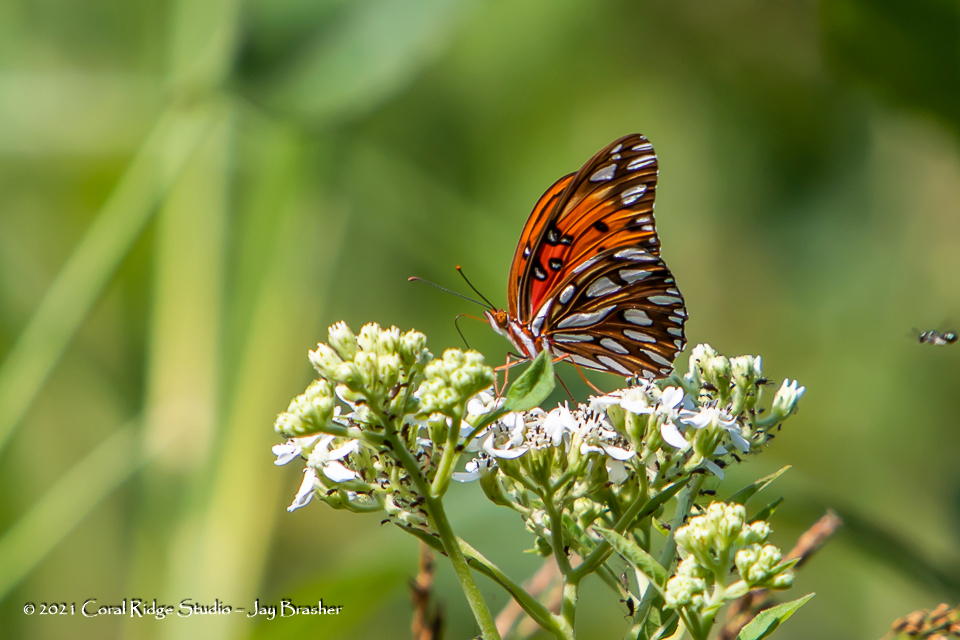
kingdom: Animalia
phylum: Arthropoda
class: Insecta
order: Lepidoptera
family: Nymphalidae
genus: Dione
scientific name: Dione vanillae
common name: Gulf fritillary
